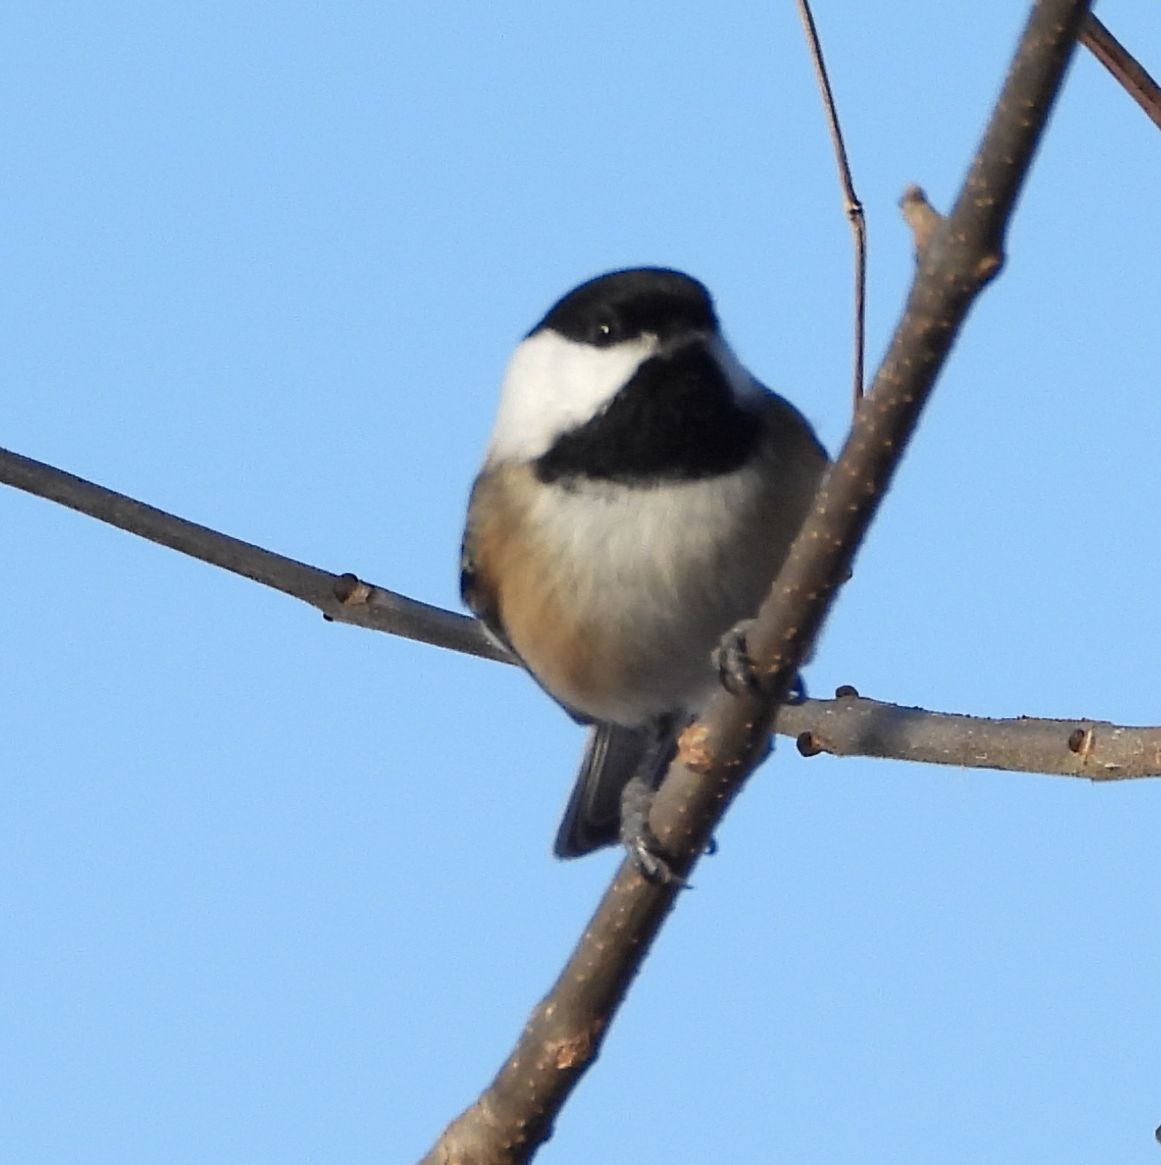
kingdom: Animalia
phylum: Chordata
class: Aves
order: Passeriformes
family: Paridae
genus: Poecile
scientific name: Poecile atricapillus
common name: Black-capped chickadee
